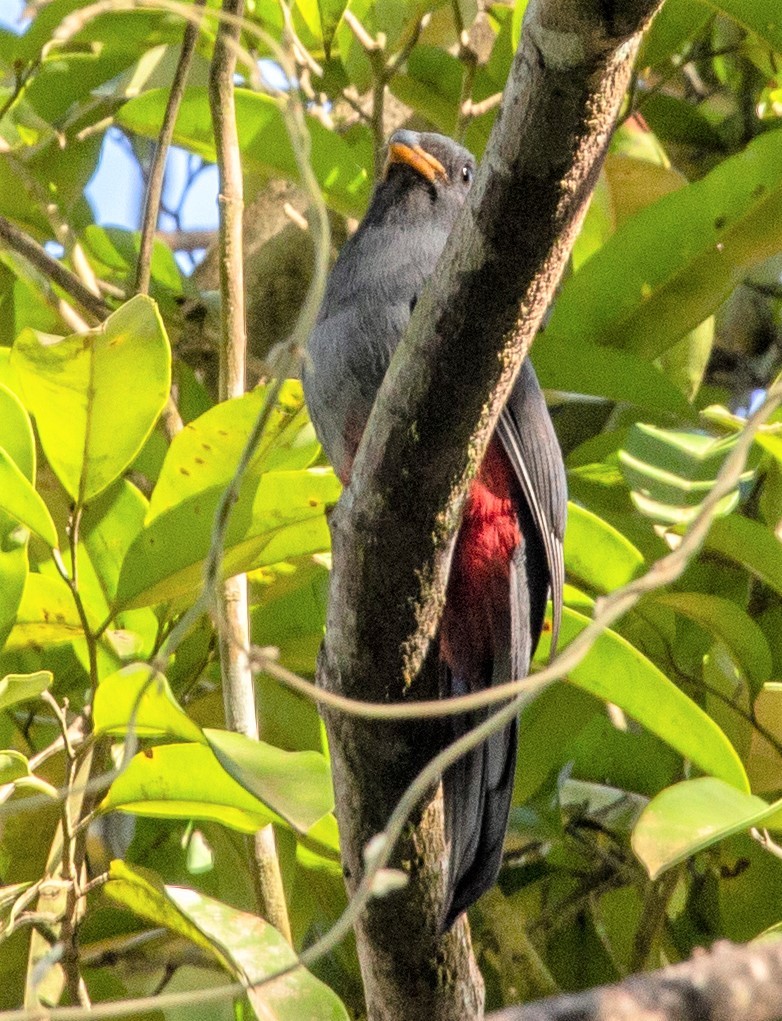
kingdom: Animalia
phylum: Chordata
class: Aves
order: Trogoniformes
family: Trogonidae
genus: Trogon
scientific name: Trogon melanurus
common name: Black-tailed trogon
